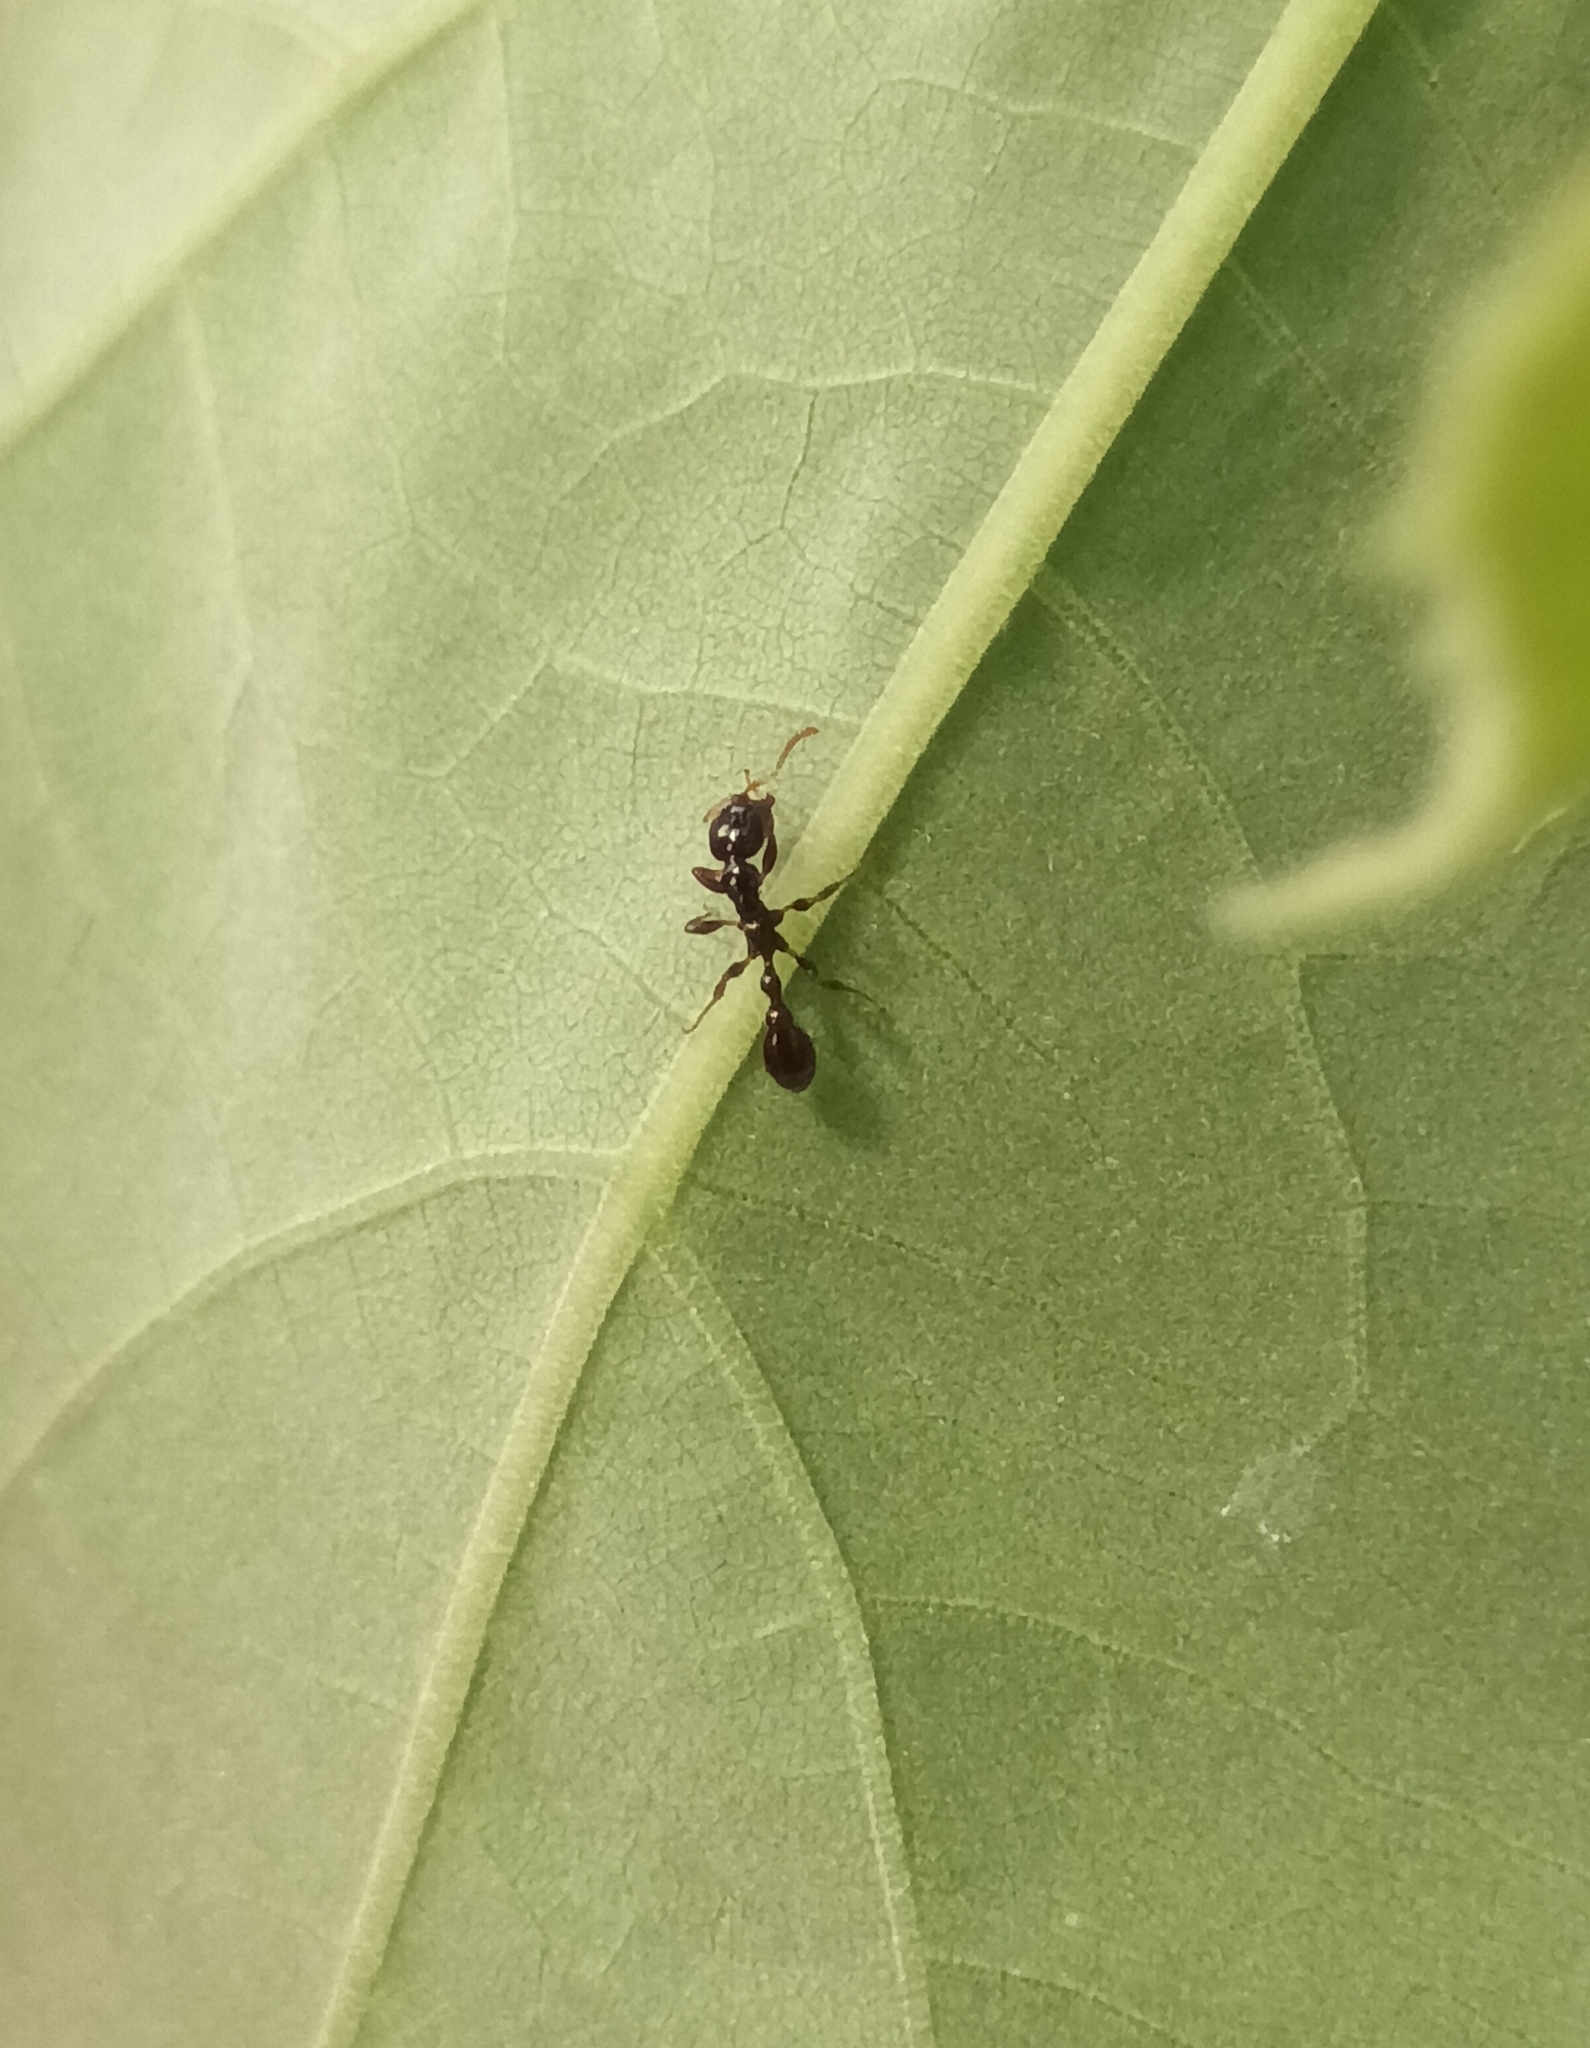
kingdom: Animalia
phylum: Arthropoda
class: Insecta
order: Hymenoptera
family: Formicidae
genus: Tetraponera
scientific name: Tetraponera allaborans
